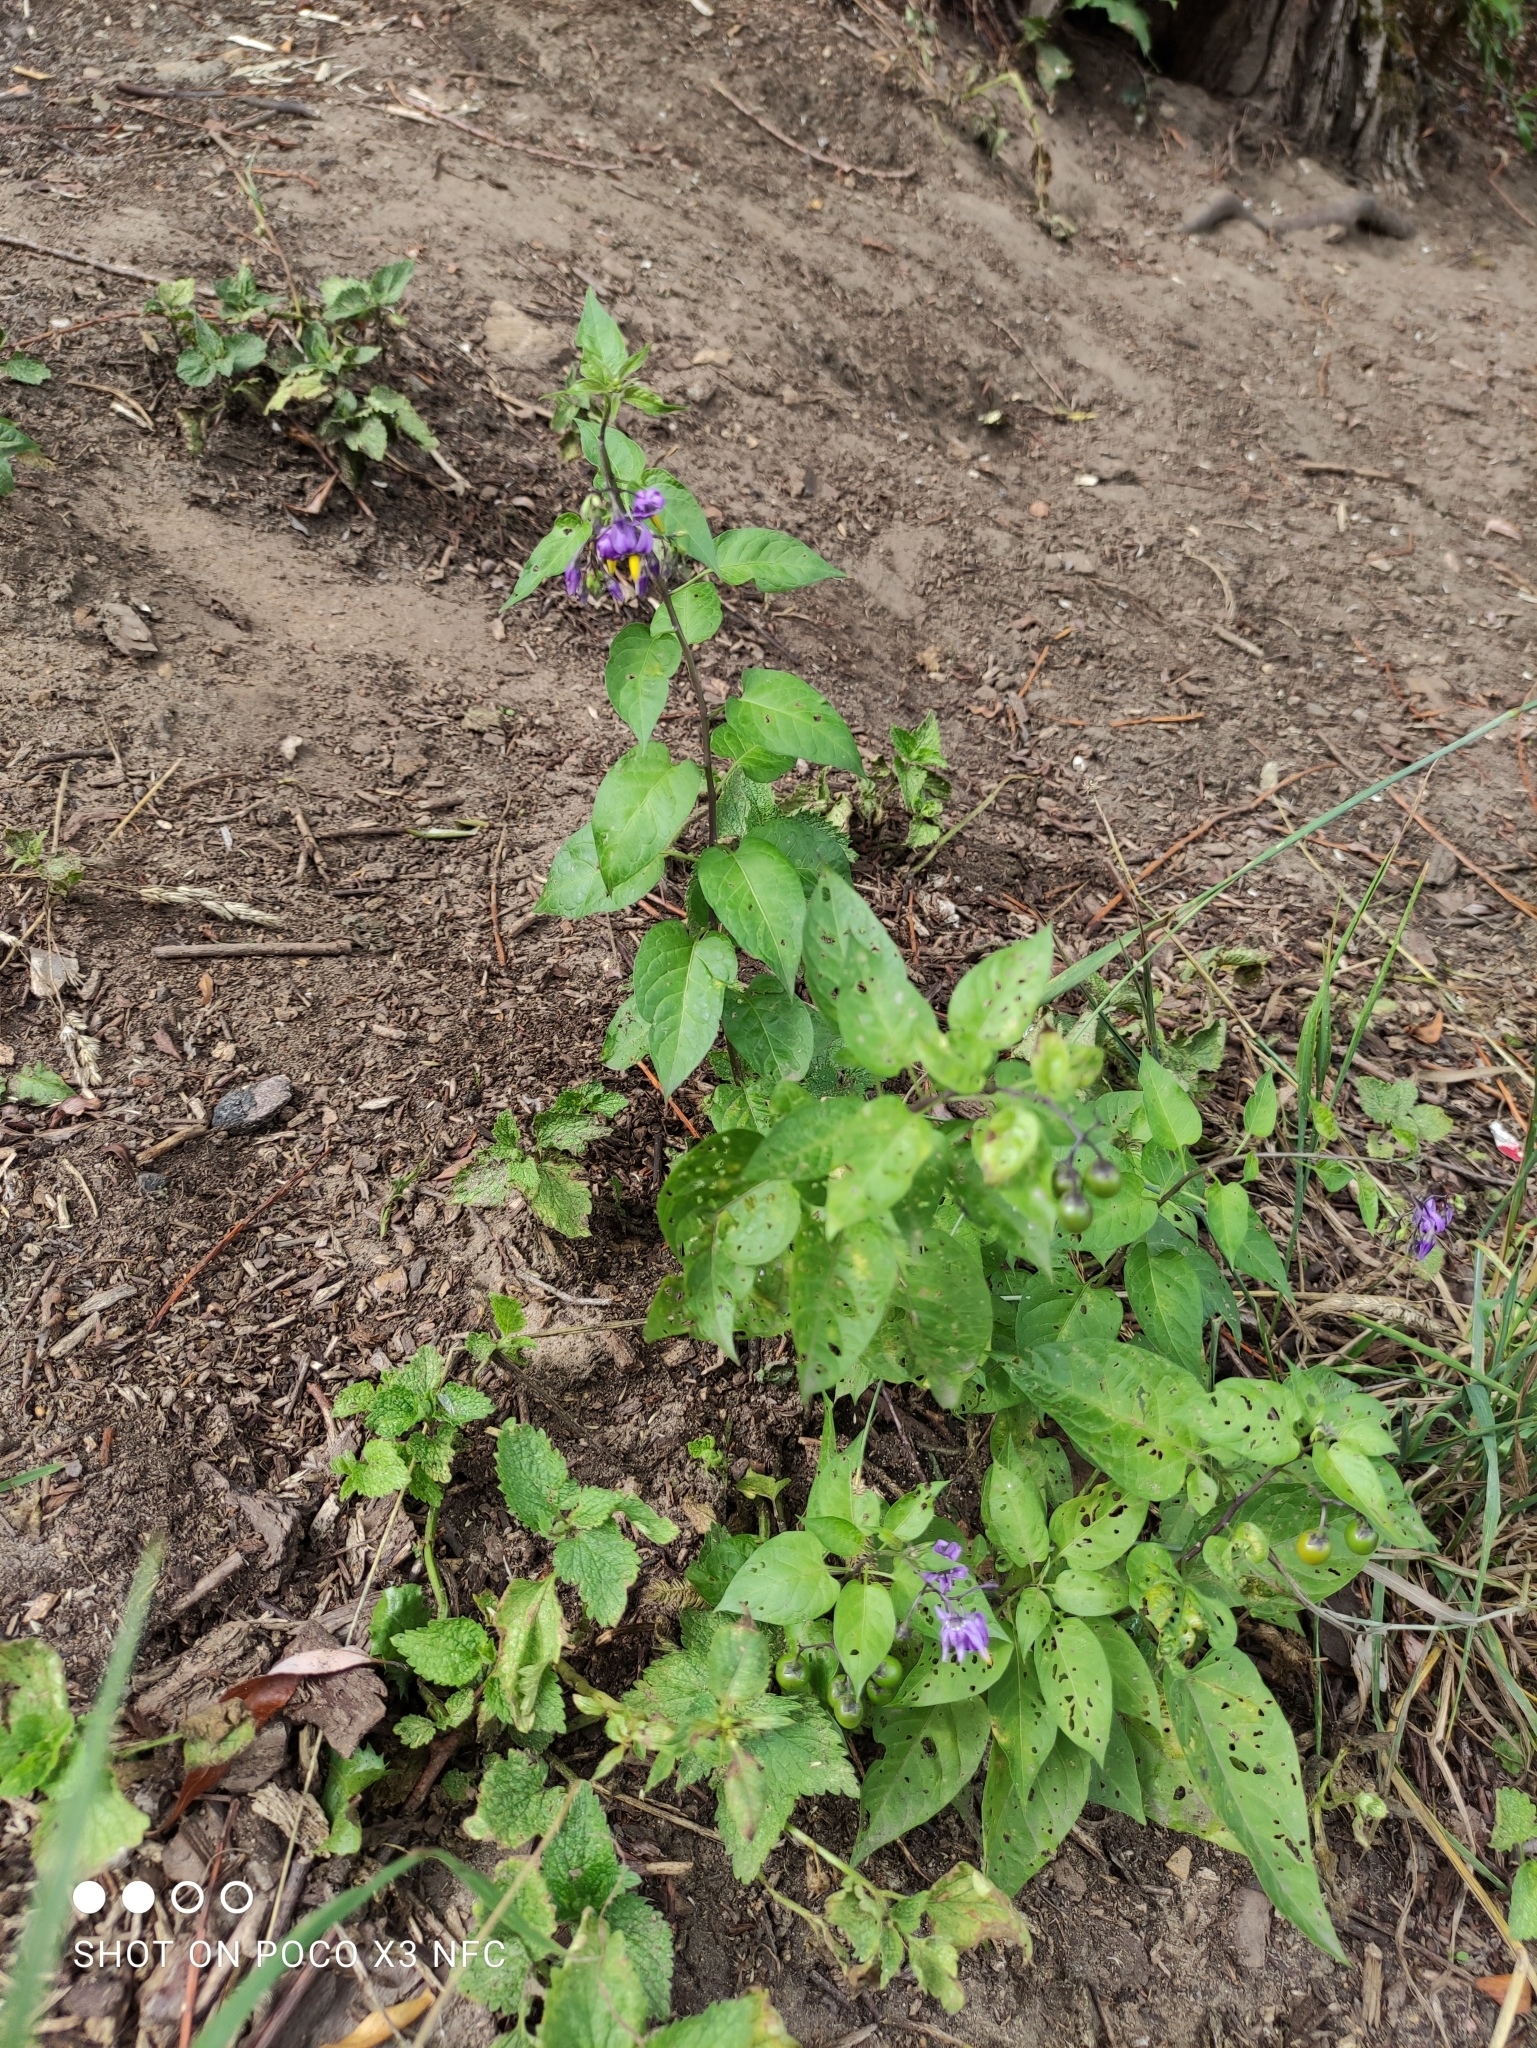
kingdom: Plantae
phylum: Tracheophyta
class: Magnoliopsida
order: Solanales
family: Solanaceae
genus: Solanum
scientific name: Solanum dulcamara
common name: Climbing nightshade
